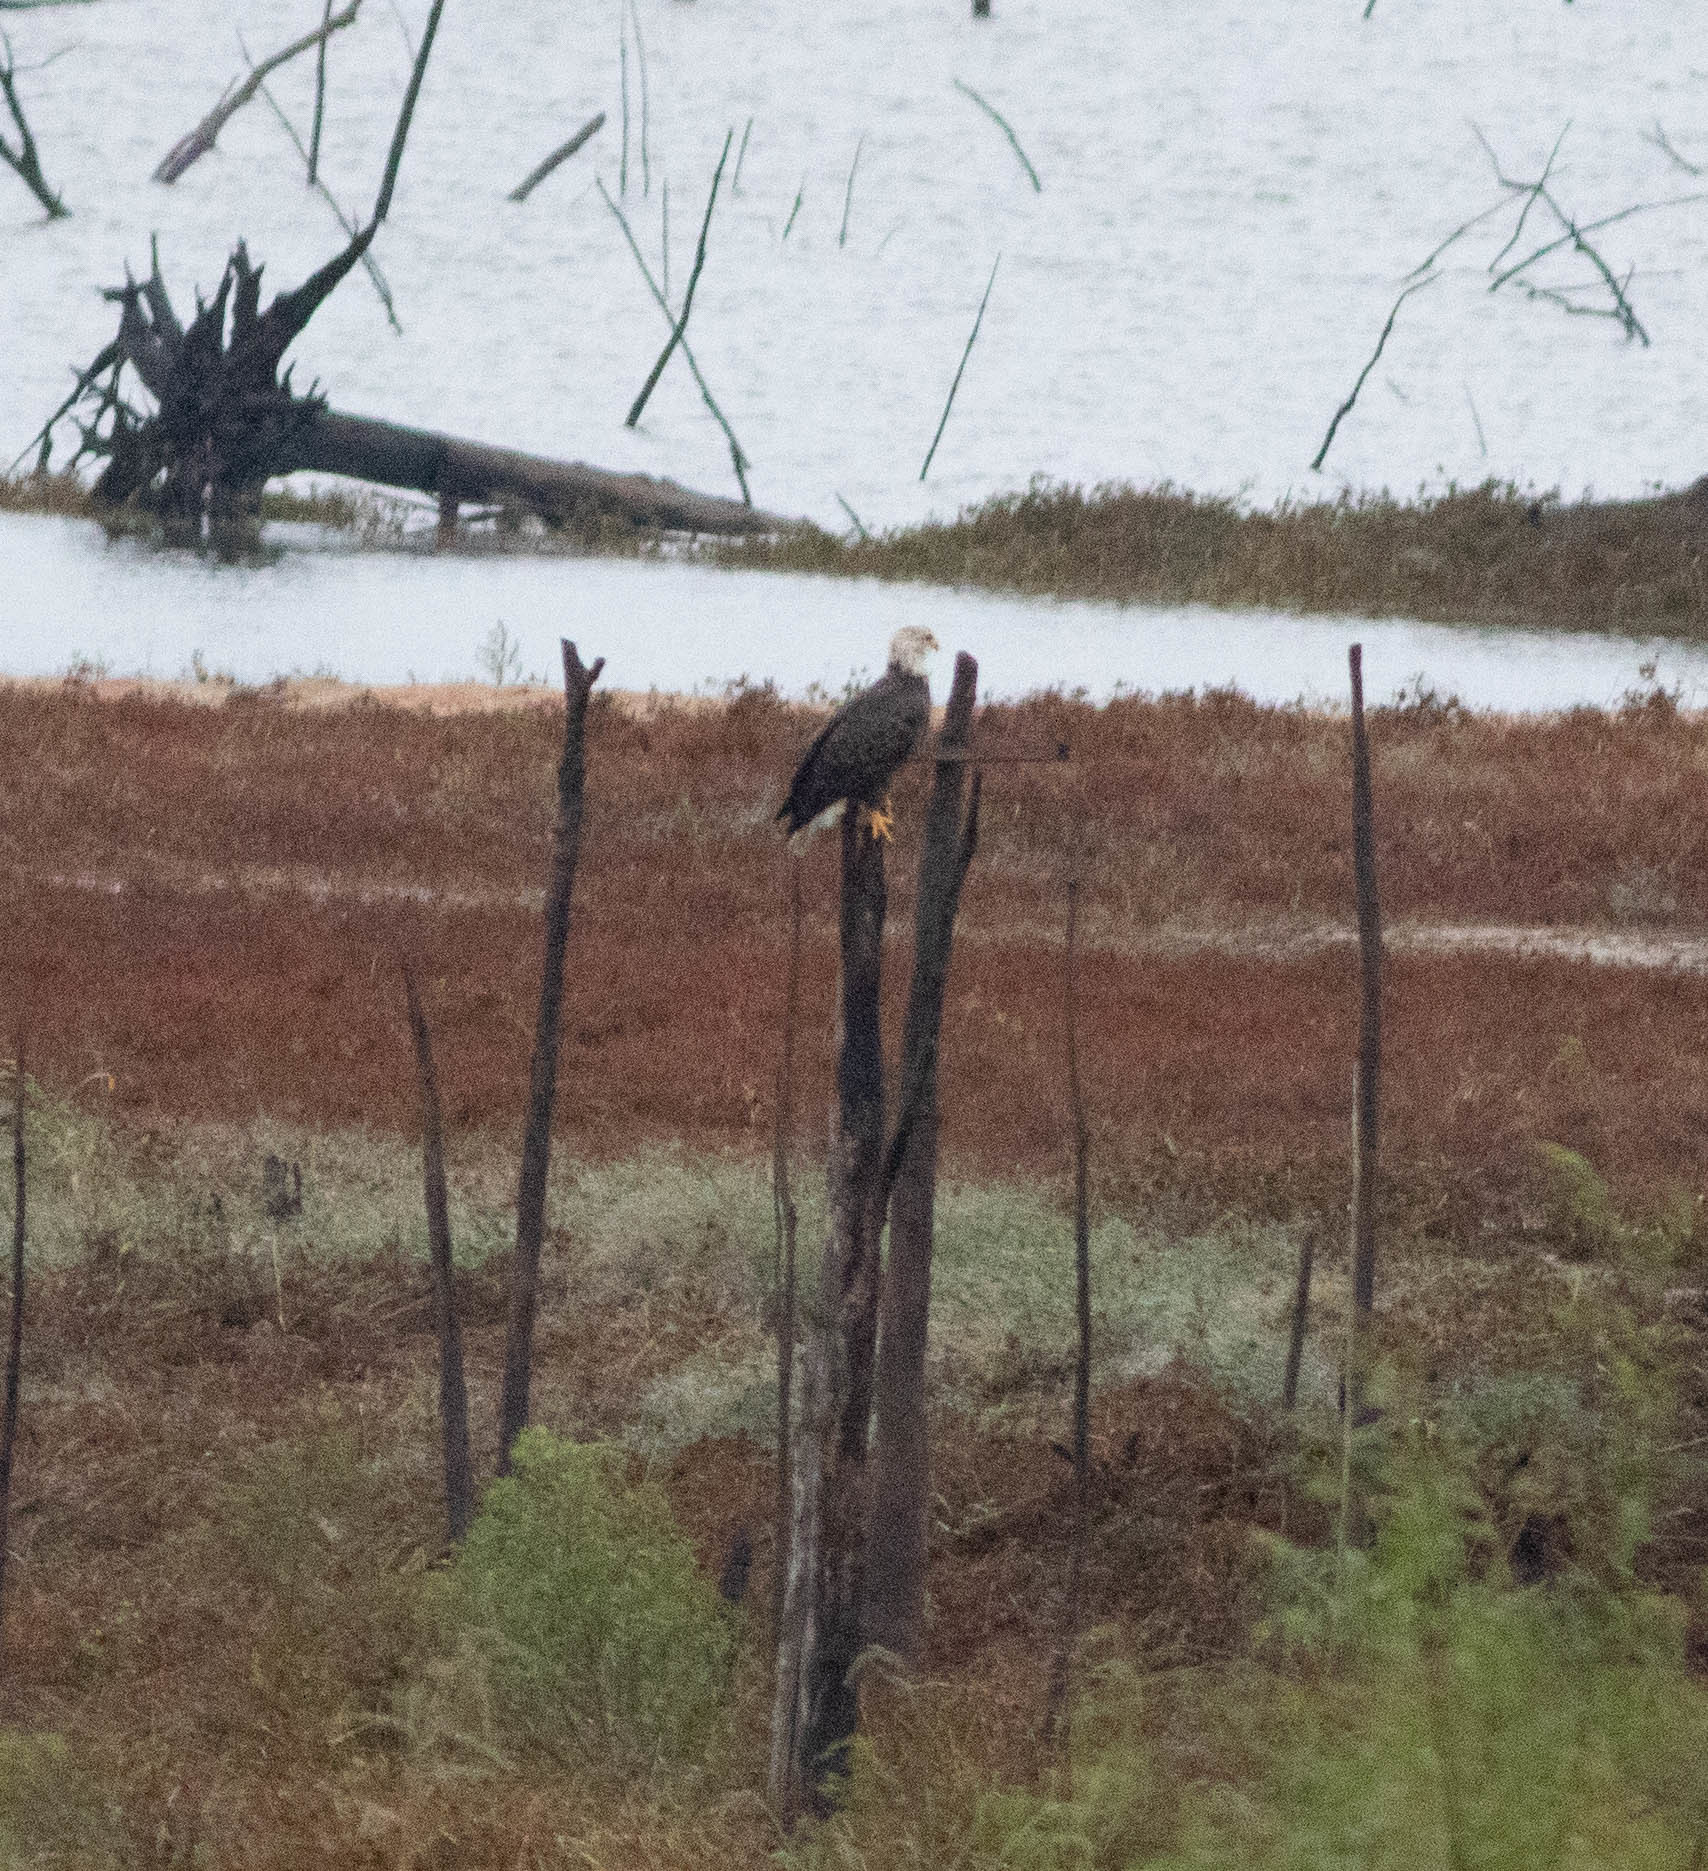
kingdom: Animalia
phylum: Chordata
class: Aves
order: Accipitriformes
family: Accipitridae
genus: Haliaeetus
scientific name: Haliaeetus leucocephalus
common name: Bald eagle
